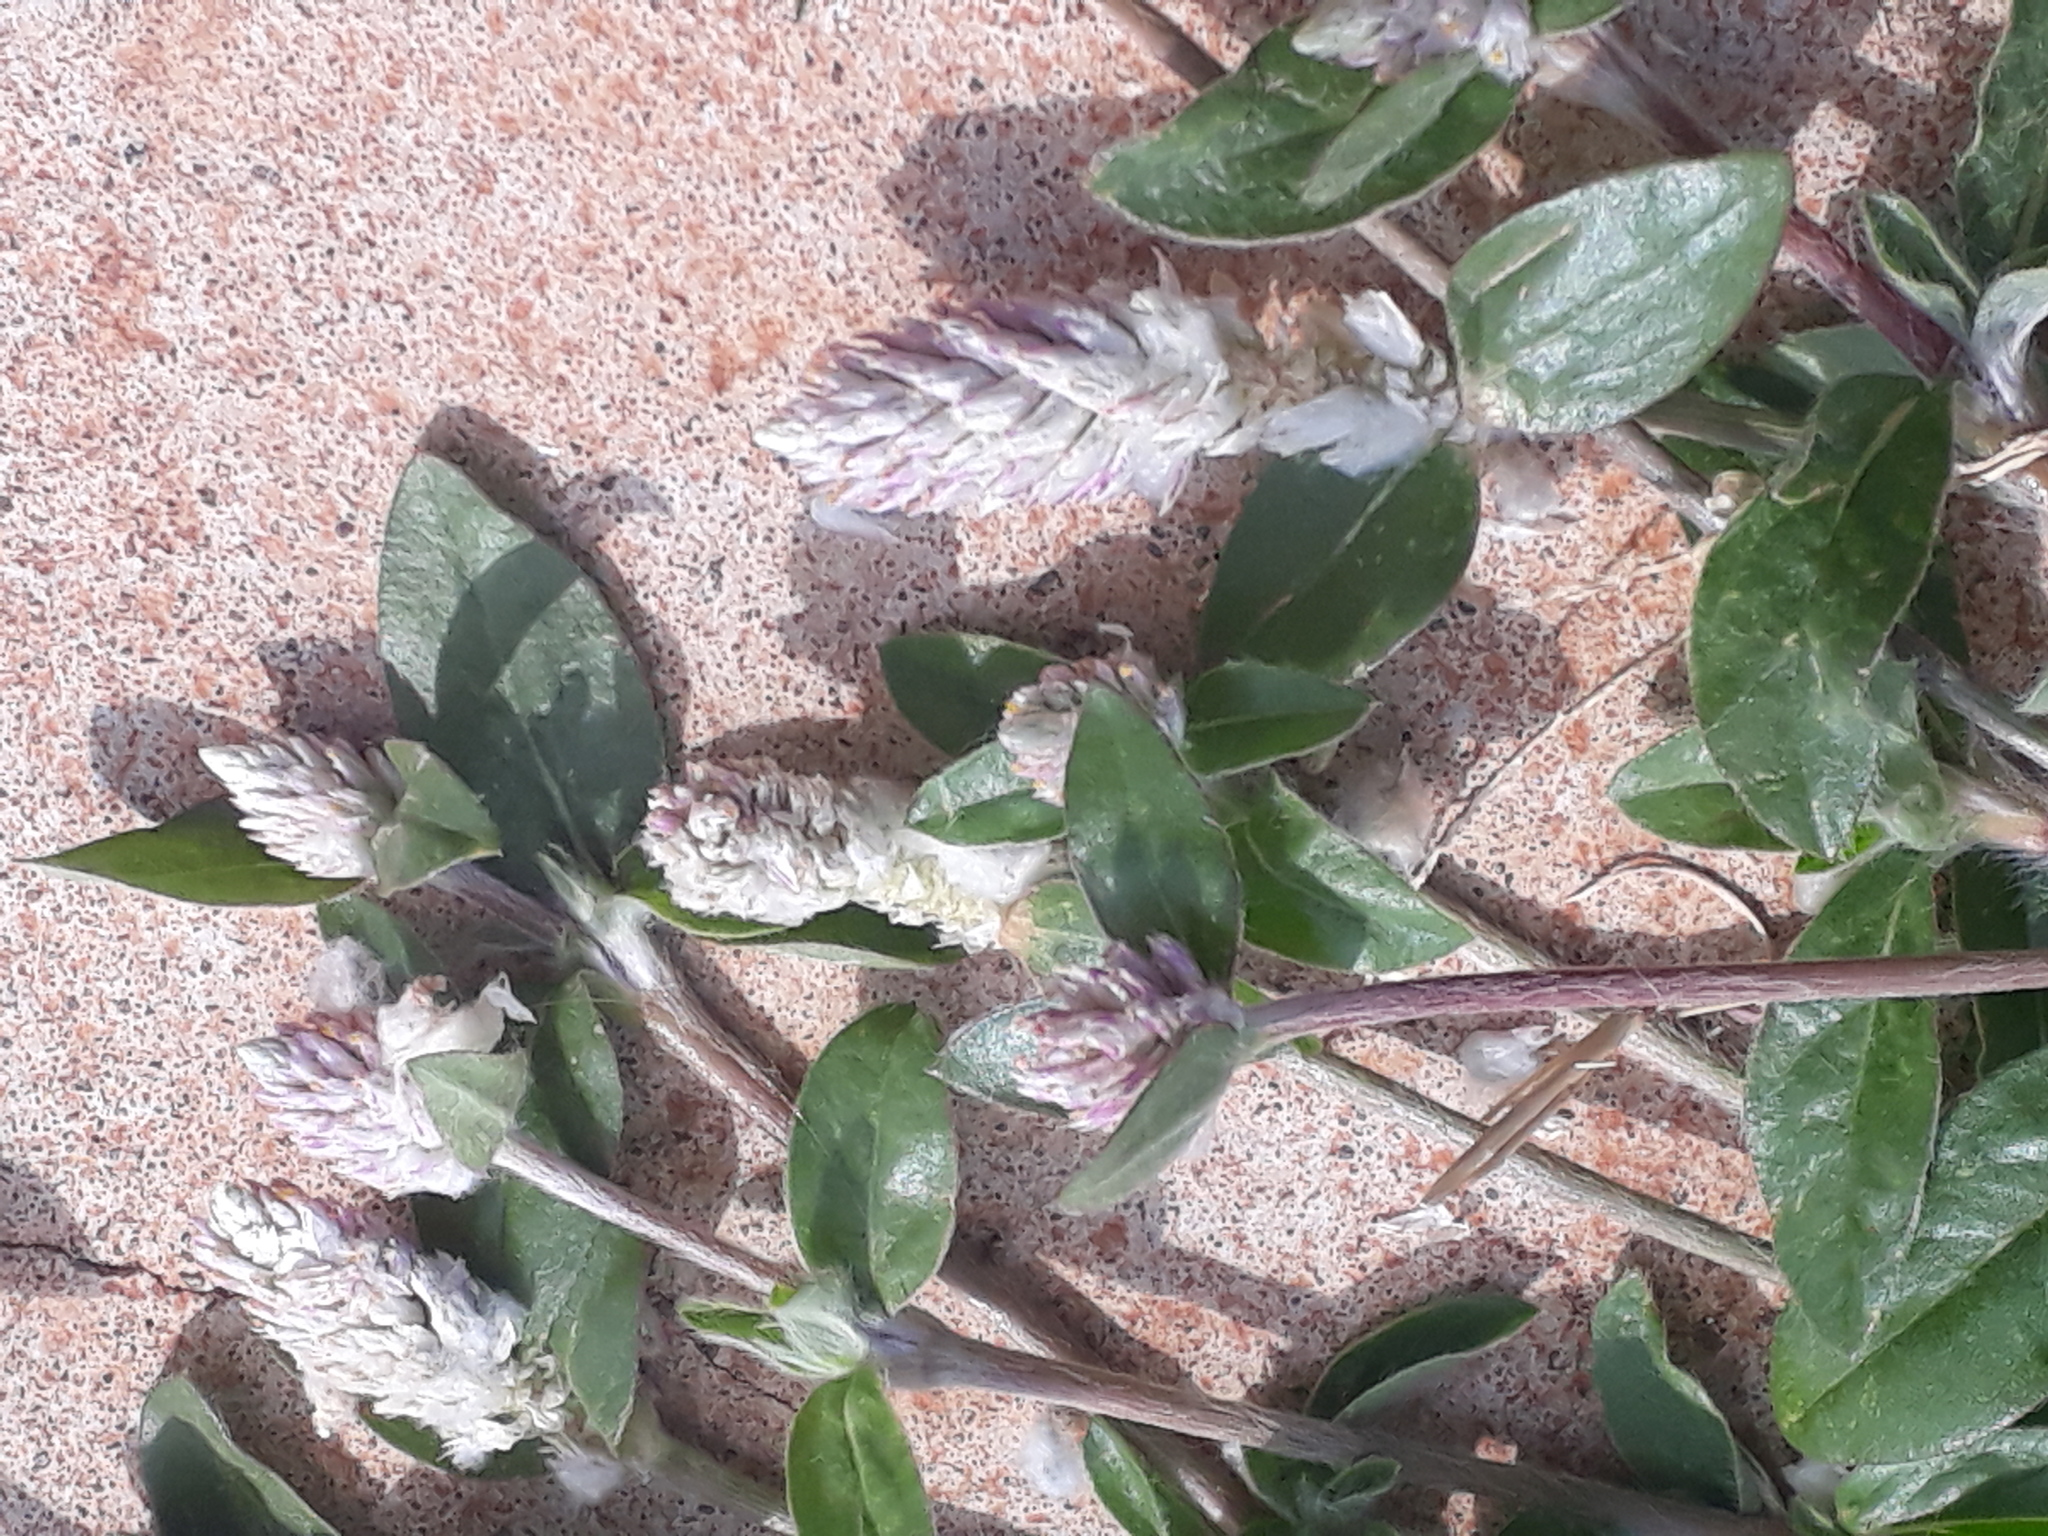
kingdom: Plantae
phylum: Tracheophyta
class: Magnoliopsida
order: Caryophyllales
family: Amaranthaceae
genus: Gomphrena
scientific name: Gomphrena celosioides
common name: Gomphrena-weed
